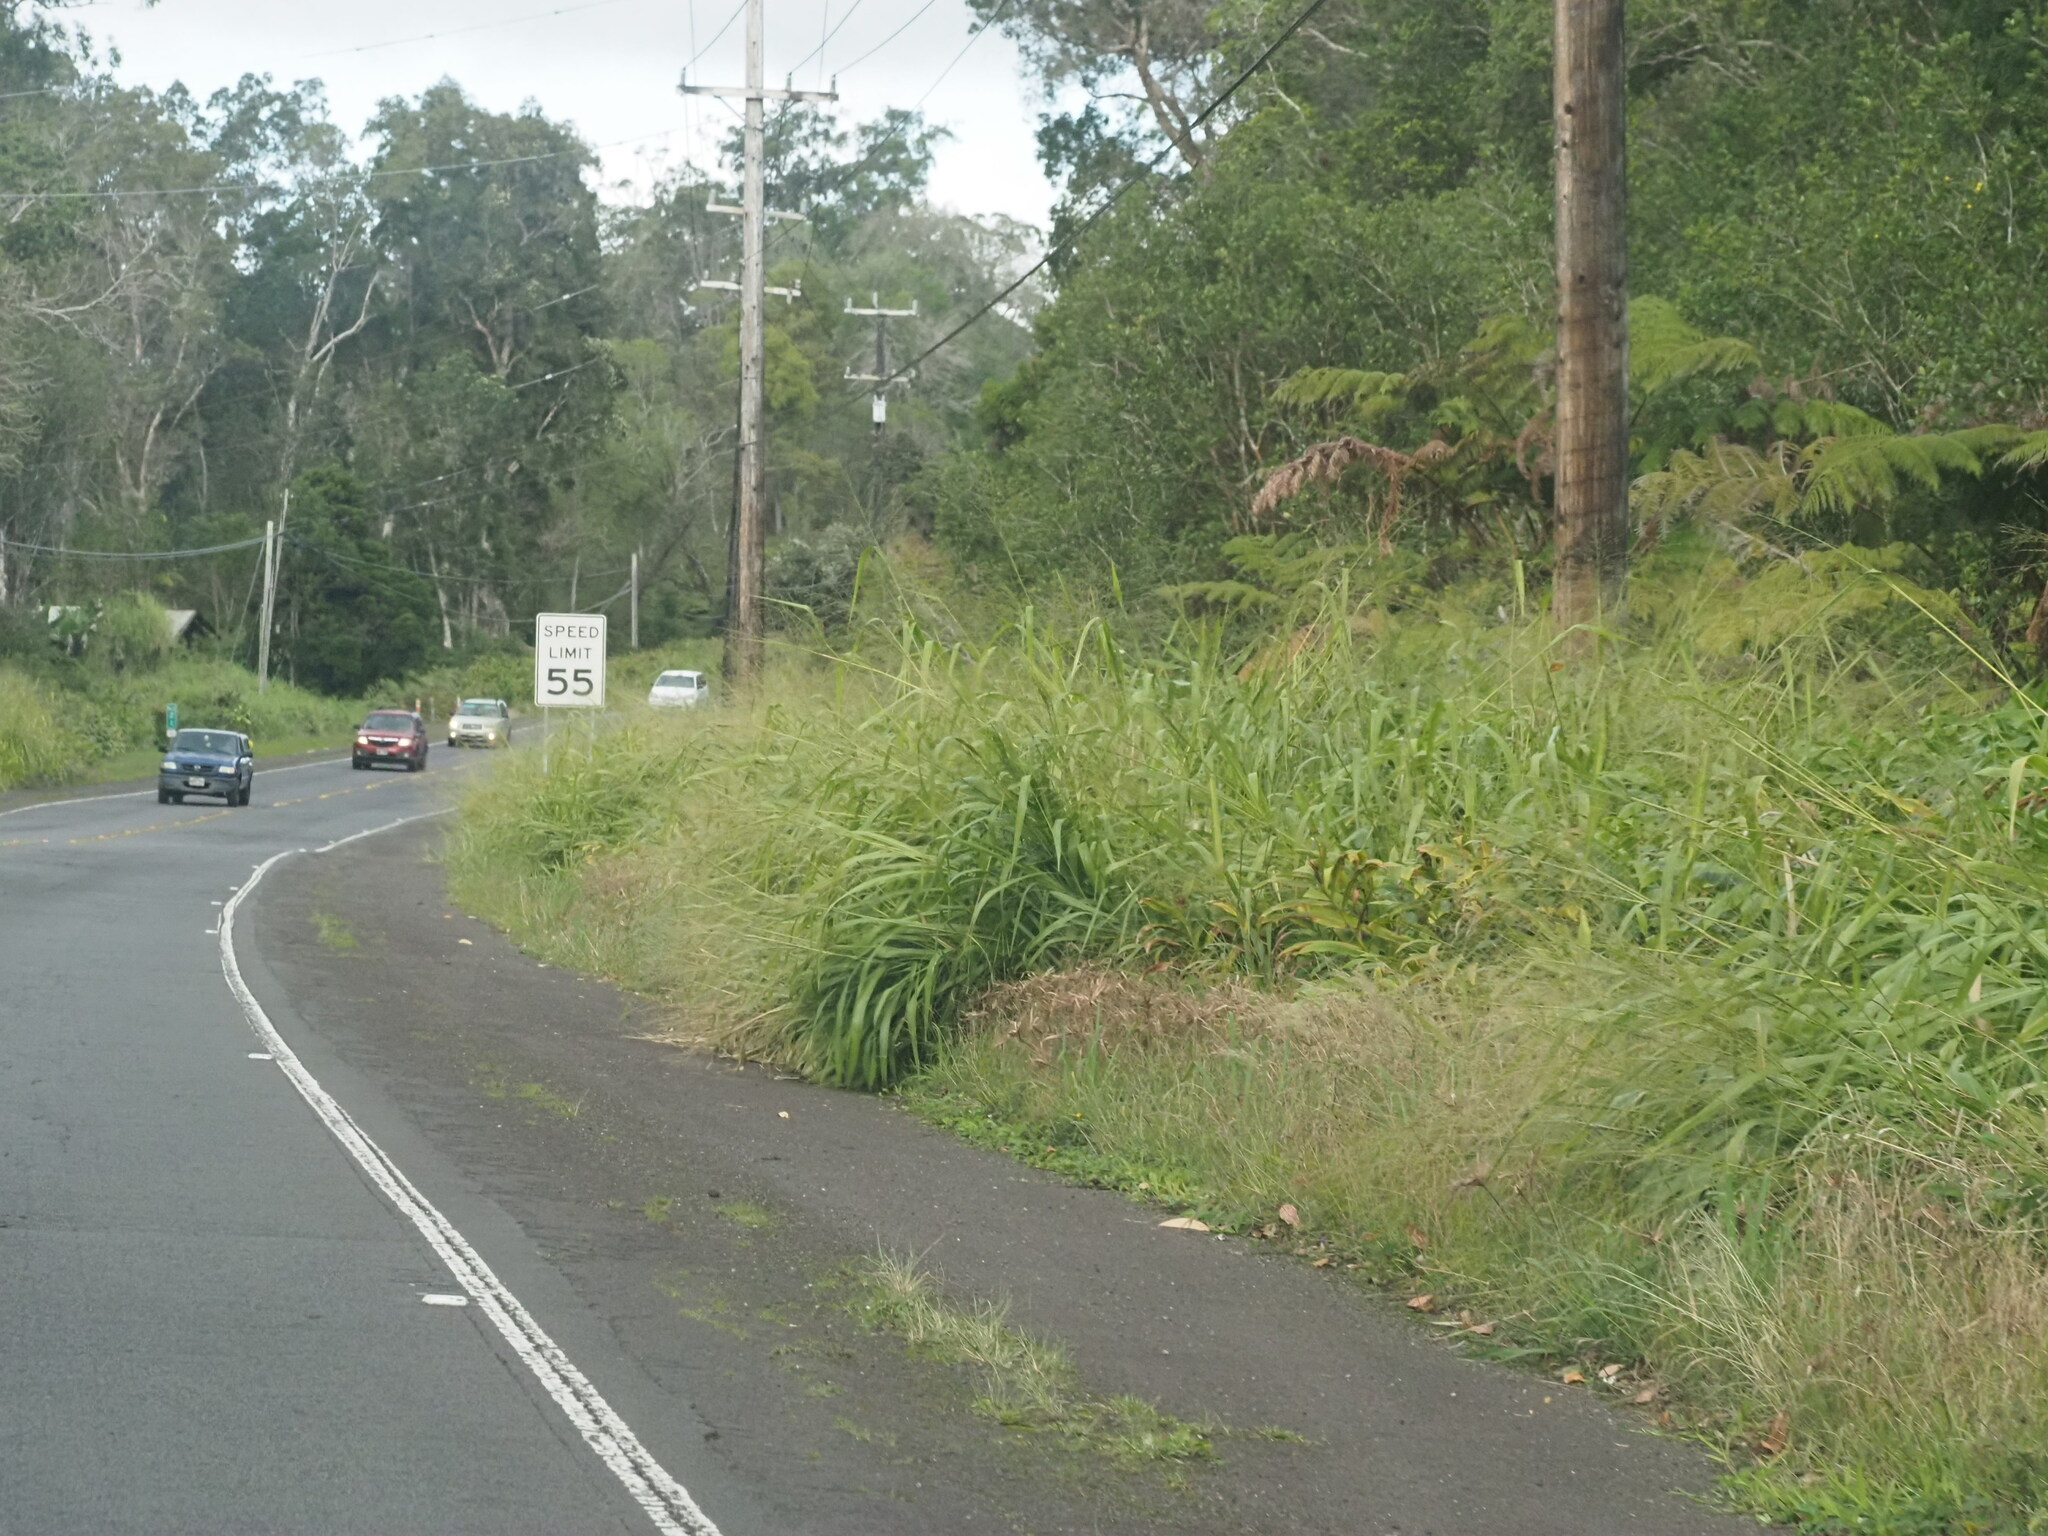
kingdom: Plantae
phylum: Tracheophyta
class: Liliopsida
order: Poales
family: Poaceae
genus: Megathyrsus
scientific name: Megathyrsus maximus
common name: Guineagrass
